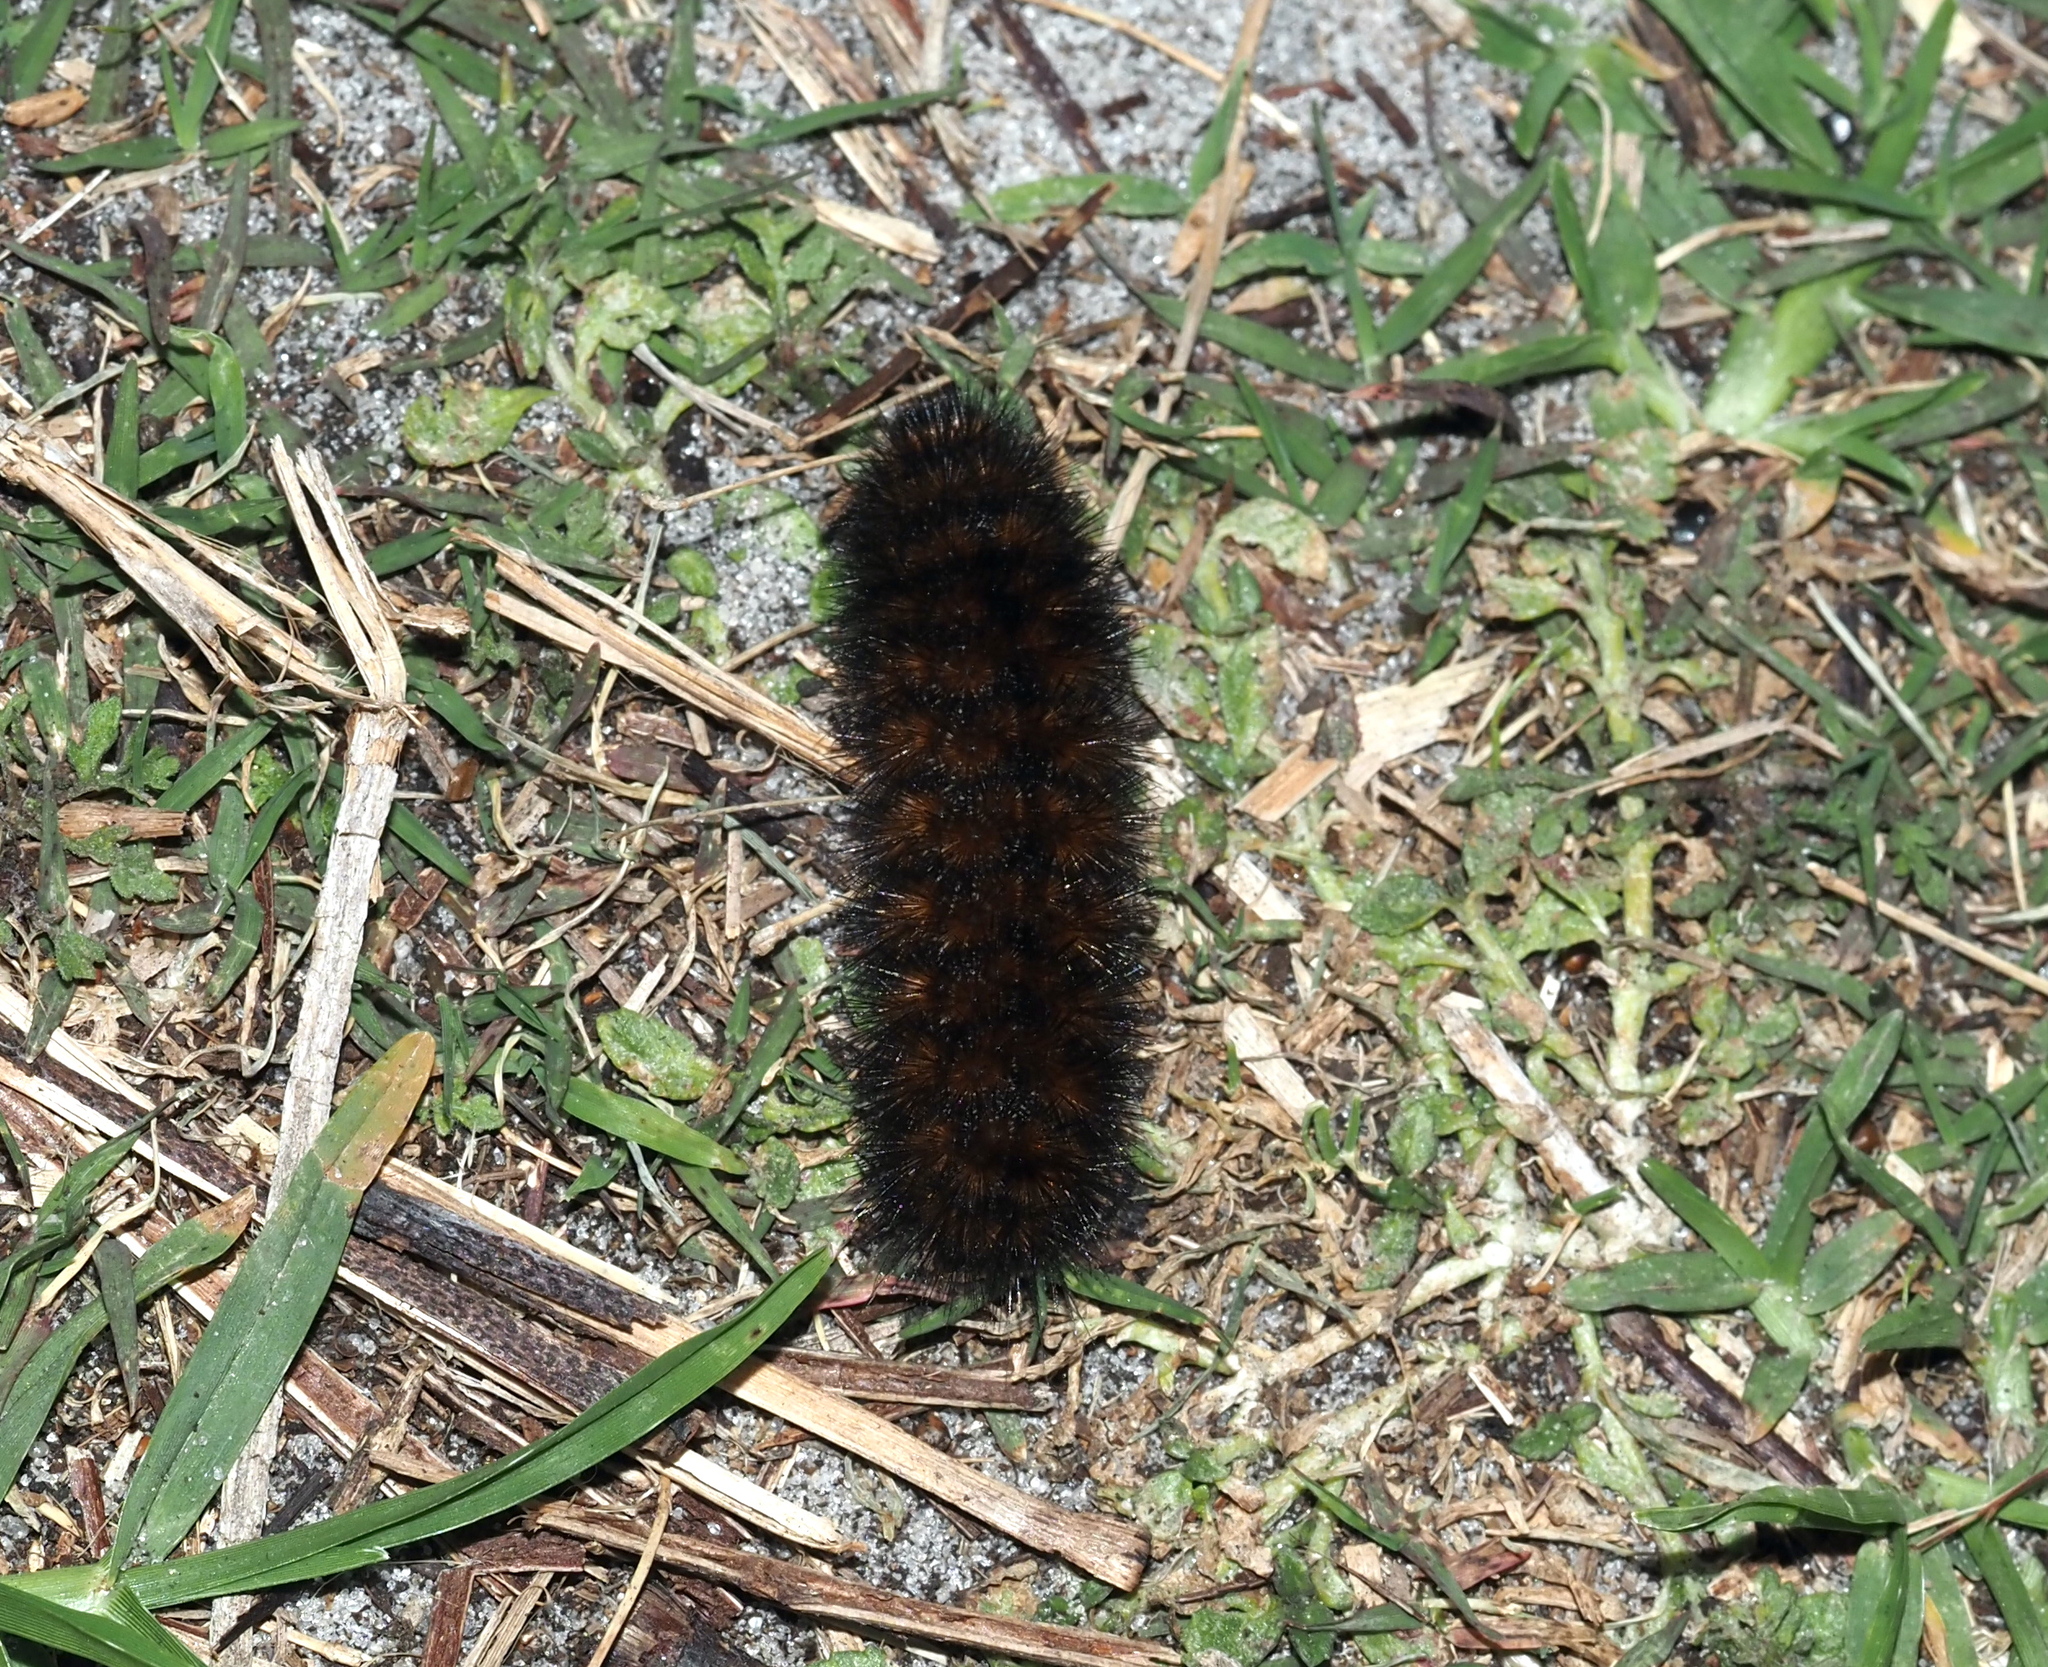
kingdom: Animalia
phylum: Arthropoda
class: Insecta
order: Lepidoptera
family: Erebidae
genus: Pyrrharctia
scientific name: Pyrrharctia isabella
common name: Isabella tiger moth
